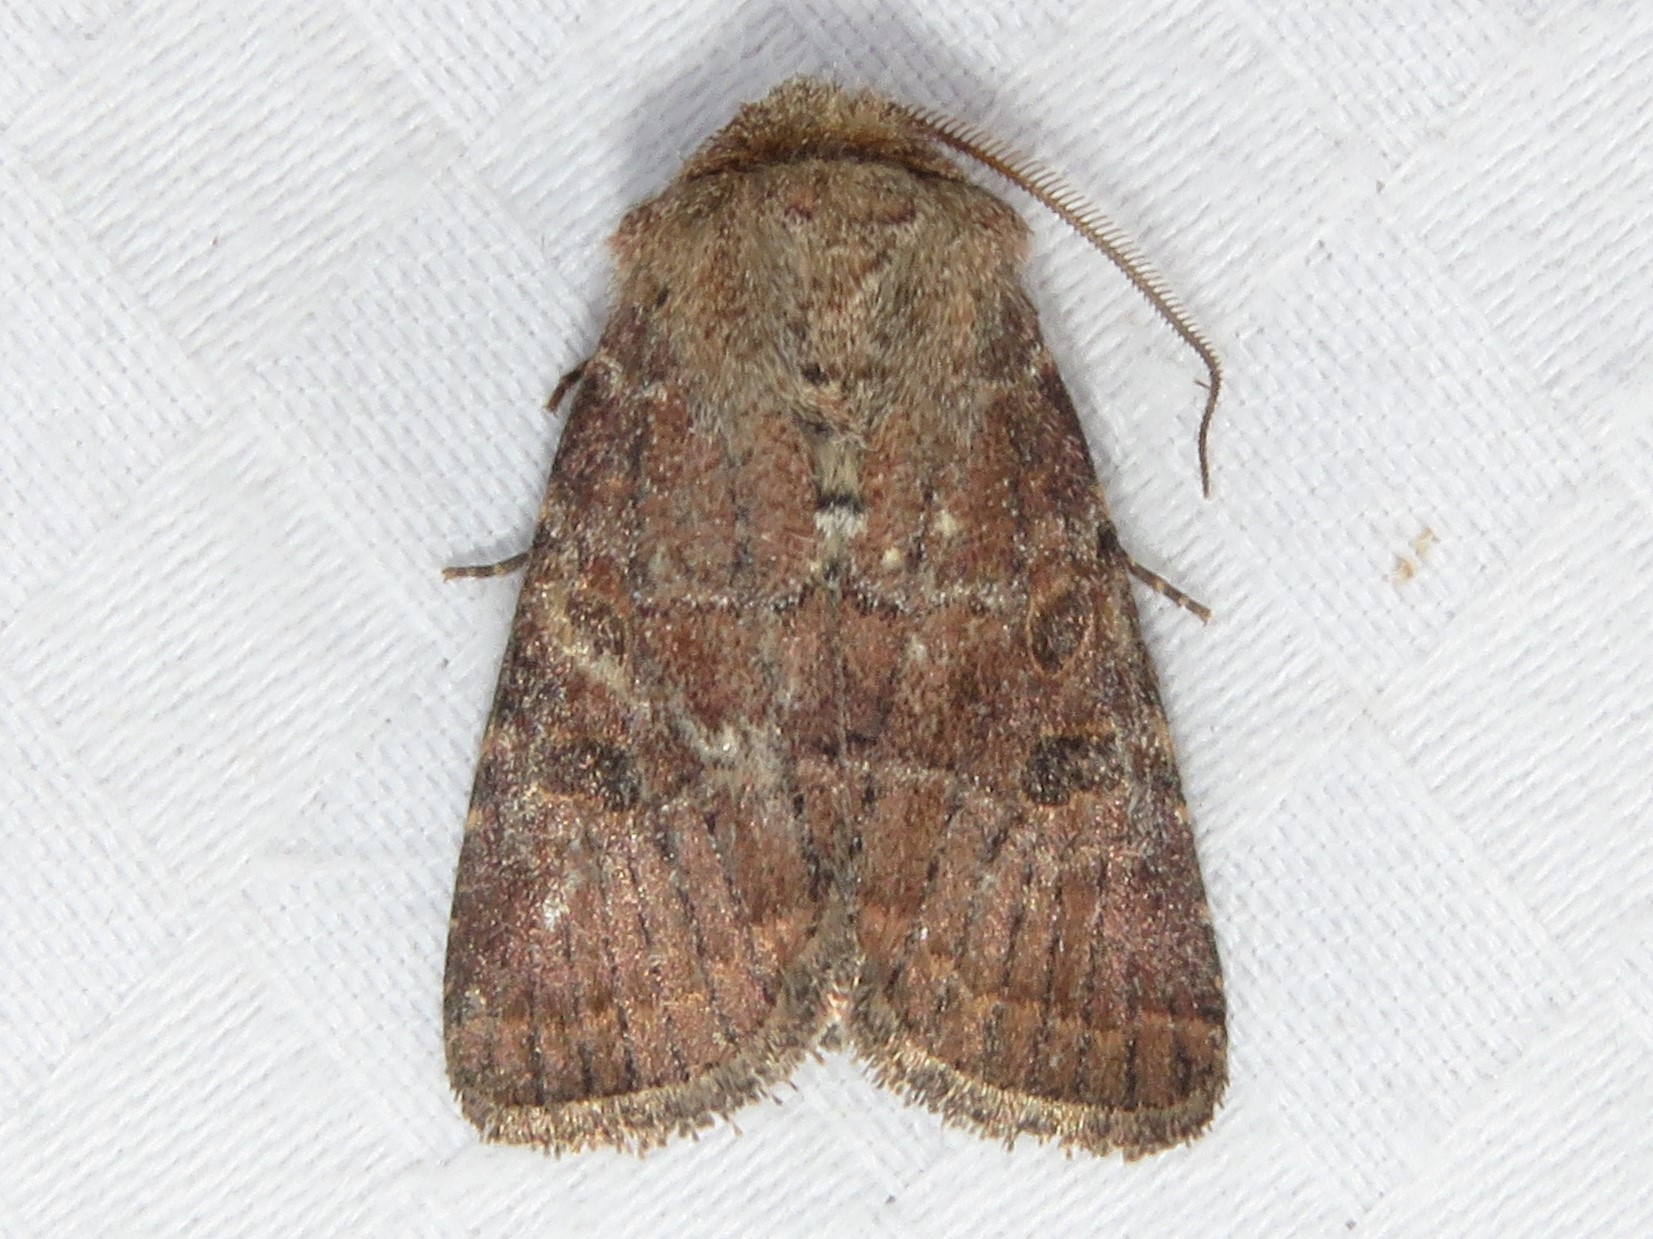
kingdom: Animalia
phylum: Arthropoda
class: Insecta
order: Lepidoptera
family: Noctuidae
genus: Trichopolia
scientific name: Trichopolia
